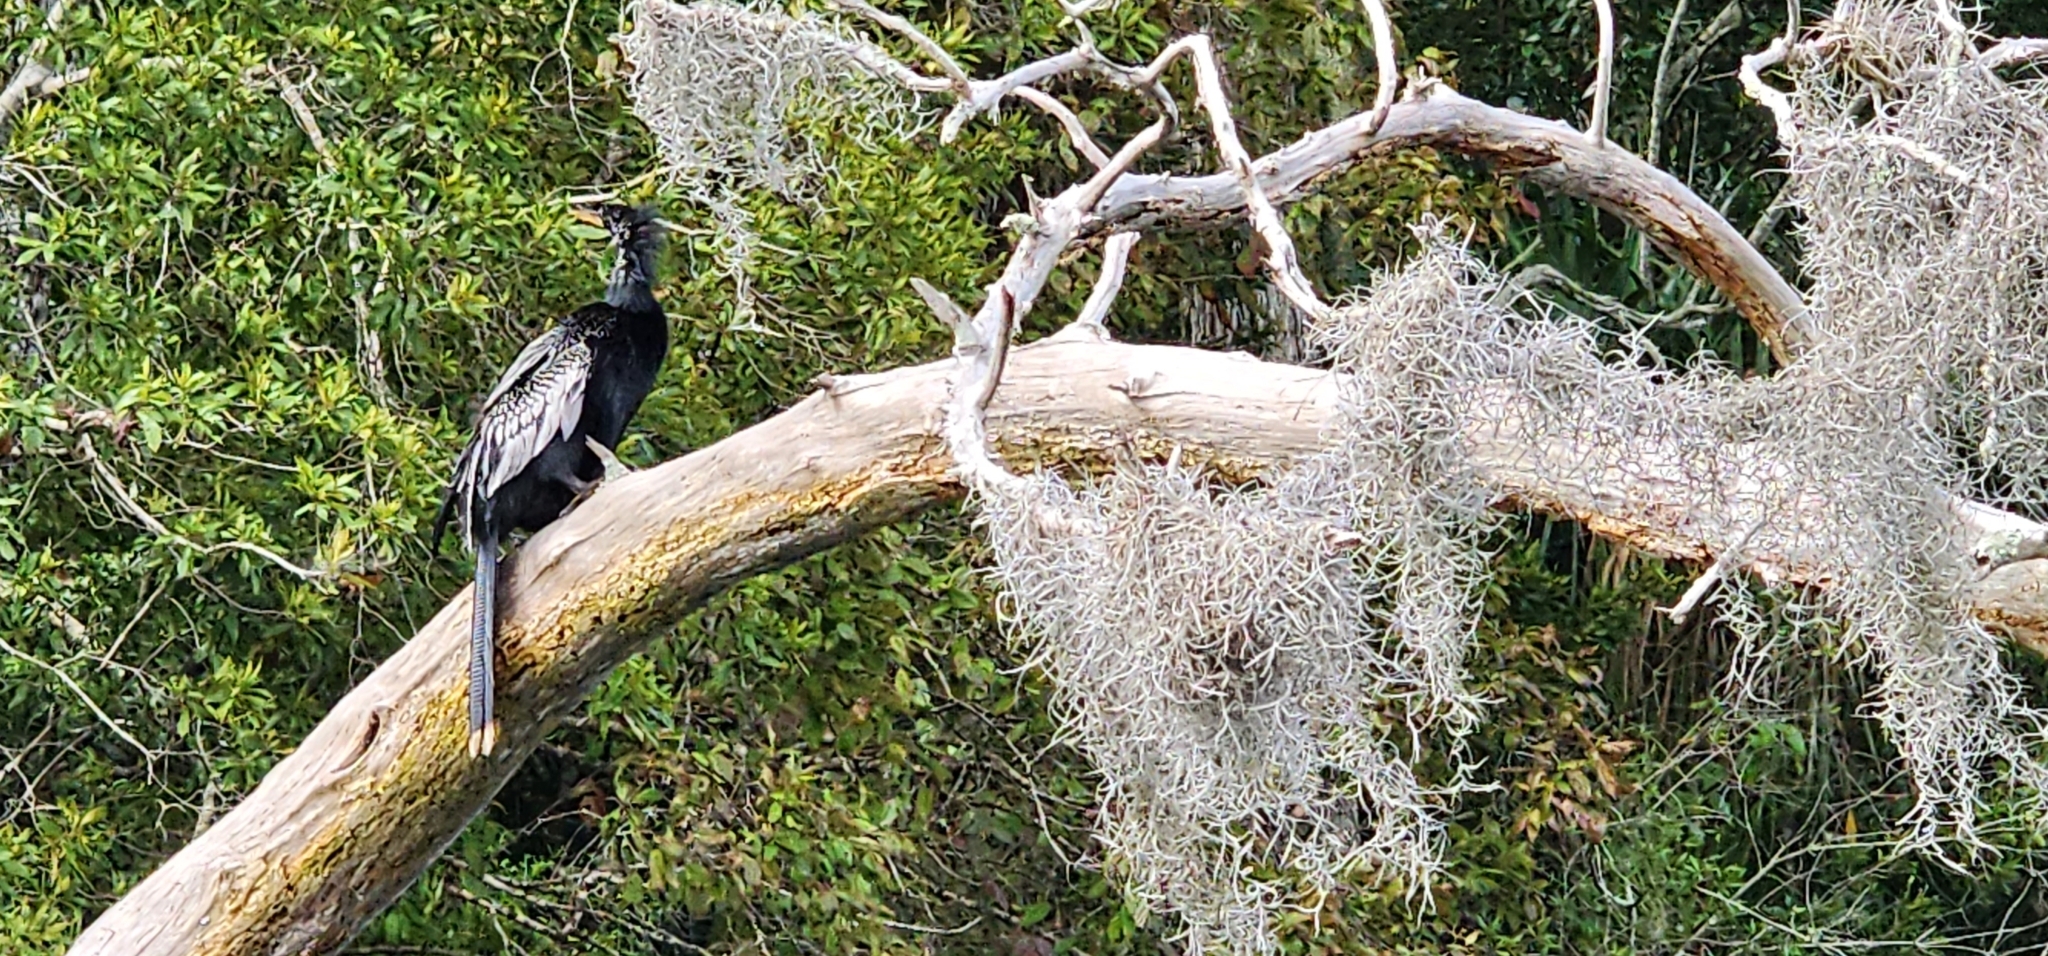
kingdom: Animalia
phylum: Chordata
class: Aves
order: Suliformes
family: Anhingidae
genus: Anhinga
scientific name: Anhinga anhinga
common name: Anhinga
